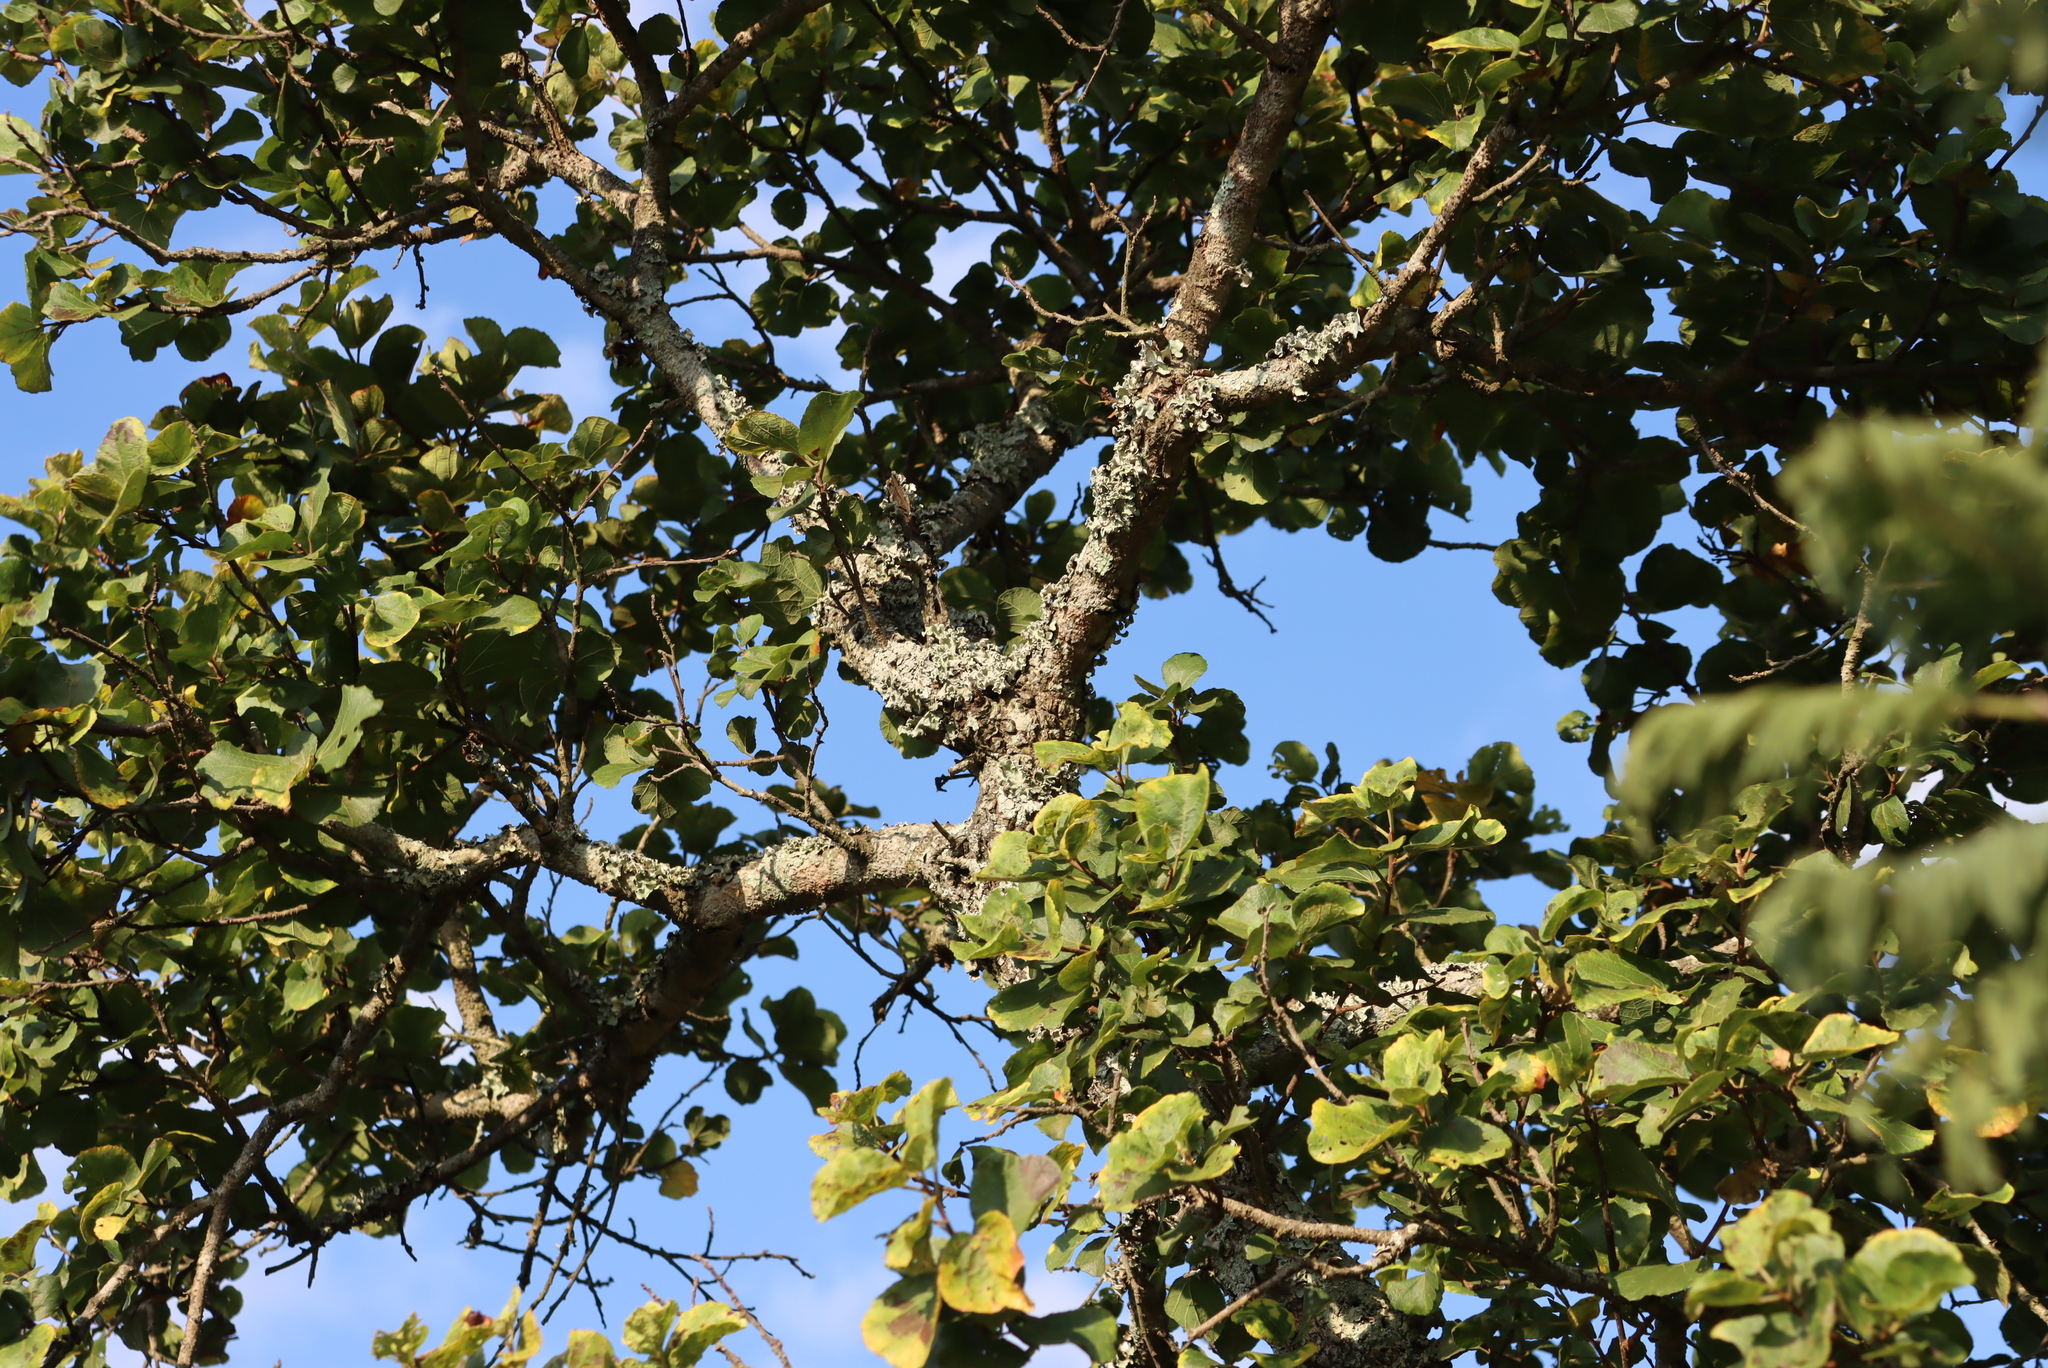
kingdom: Plantae
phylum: Tracheophyta
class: Magnoliopsida
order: Malvales
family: Malvaceae
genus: Dombeya
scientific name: Dombeya rotundifolia
